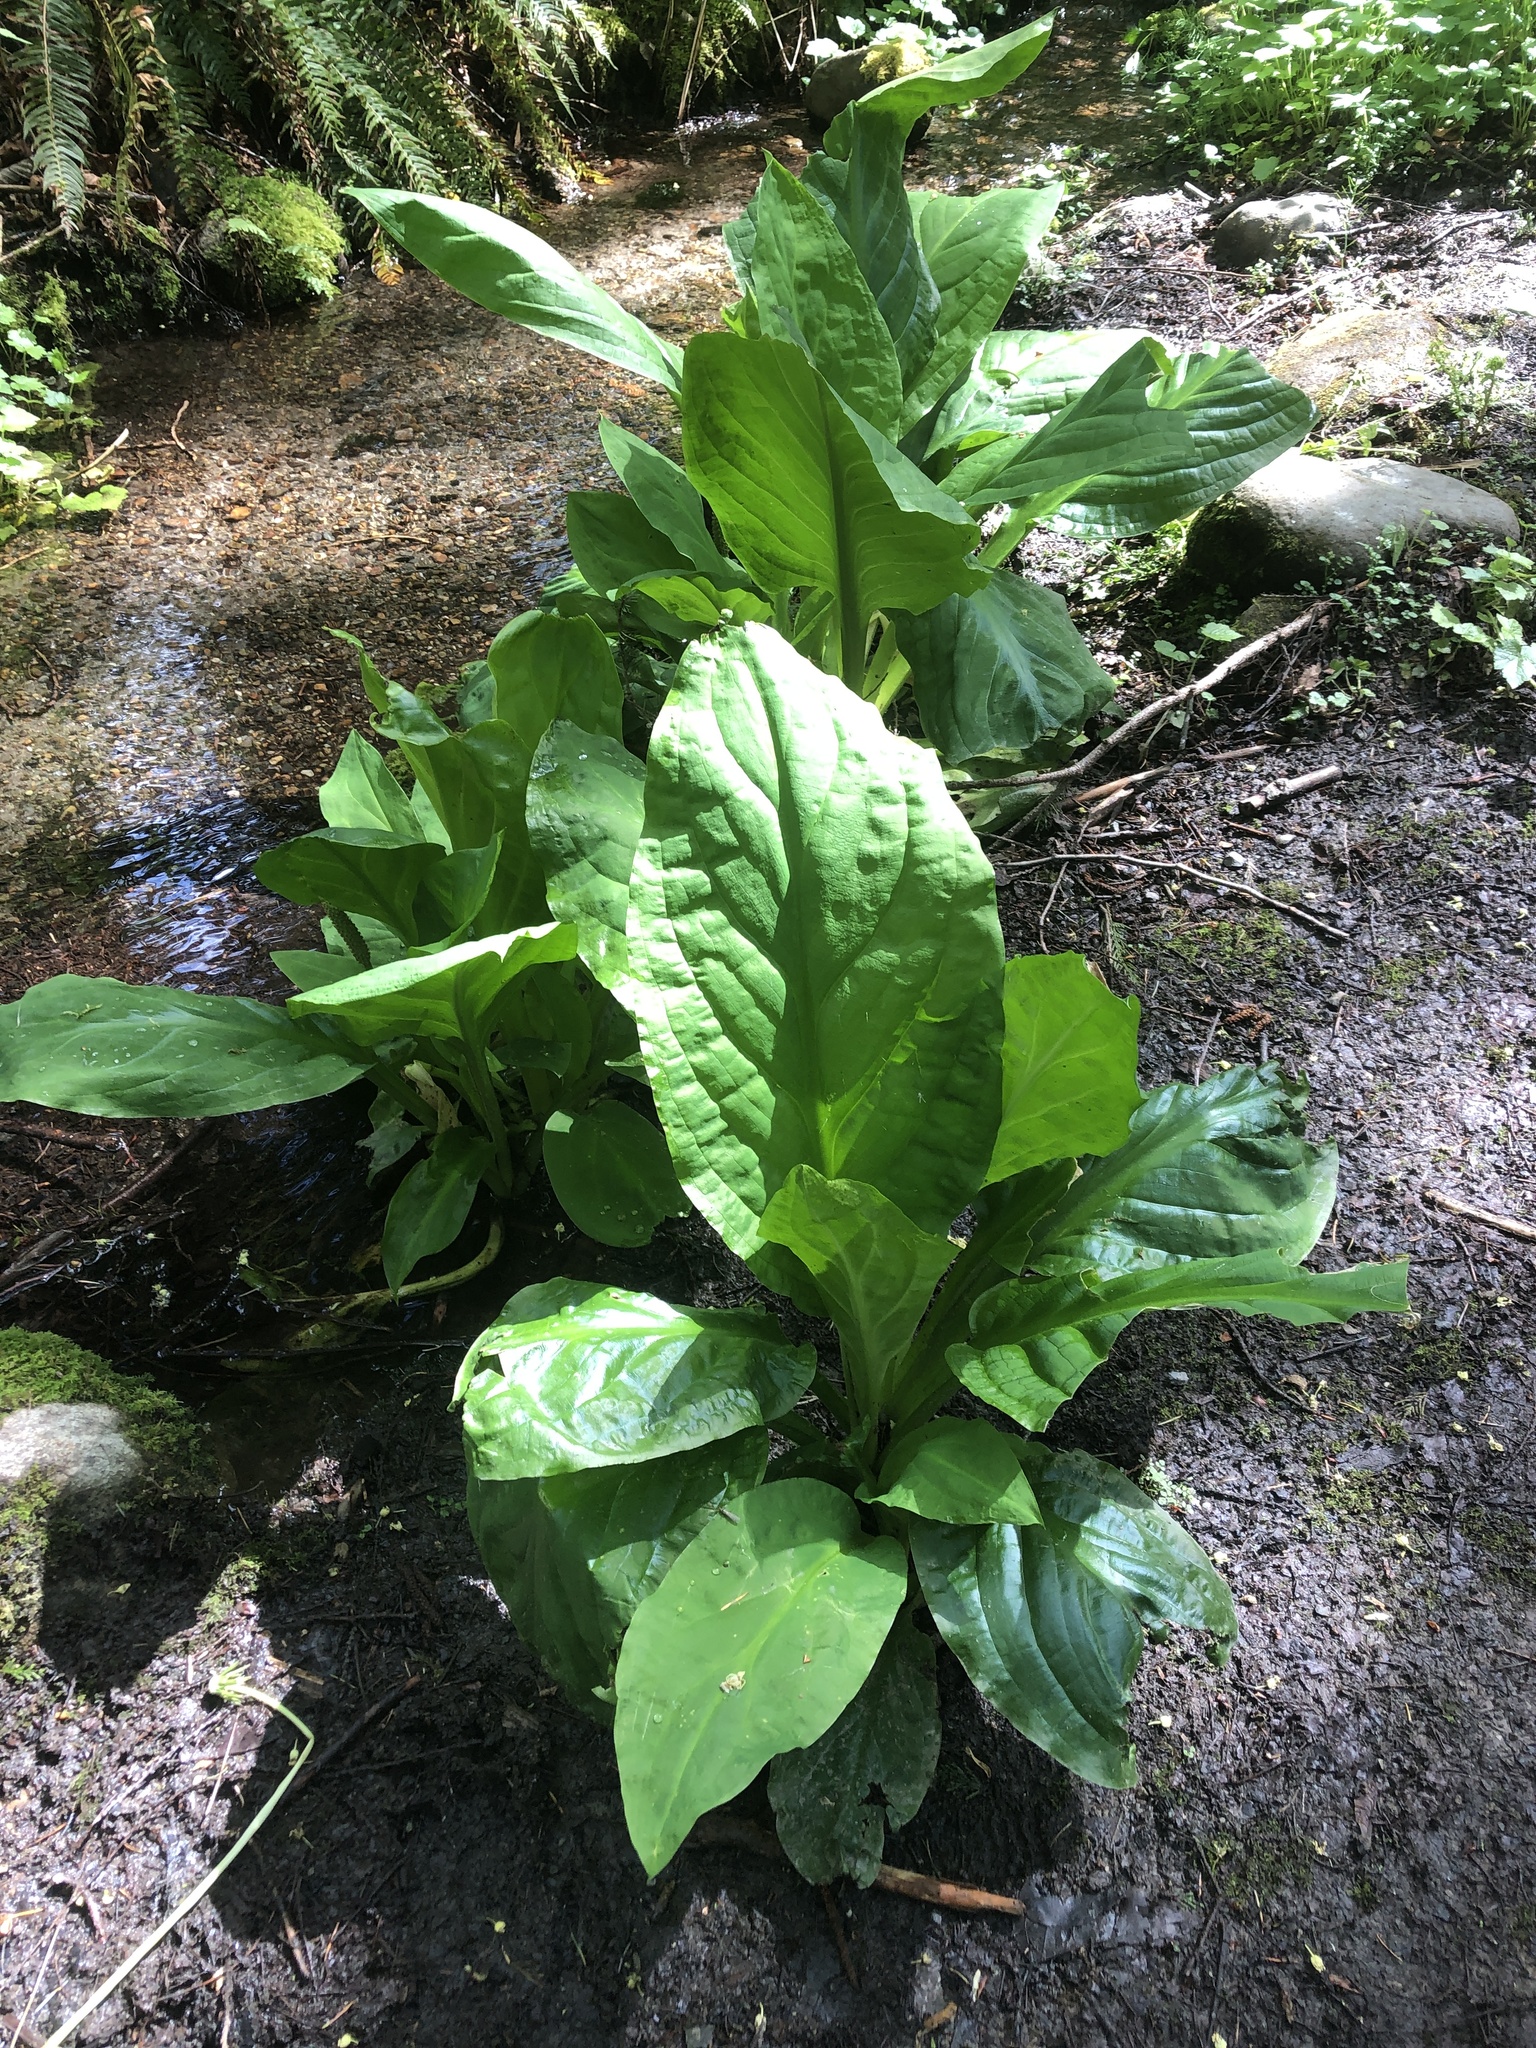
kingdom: Plantae
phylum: Tracheophyta
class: Liliopsida
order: Alismatales
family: Araceae
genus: Lysichiton
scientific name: Lysichiton americanus
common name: American skunk cabbage
